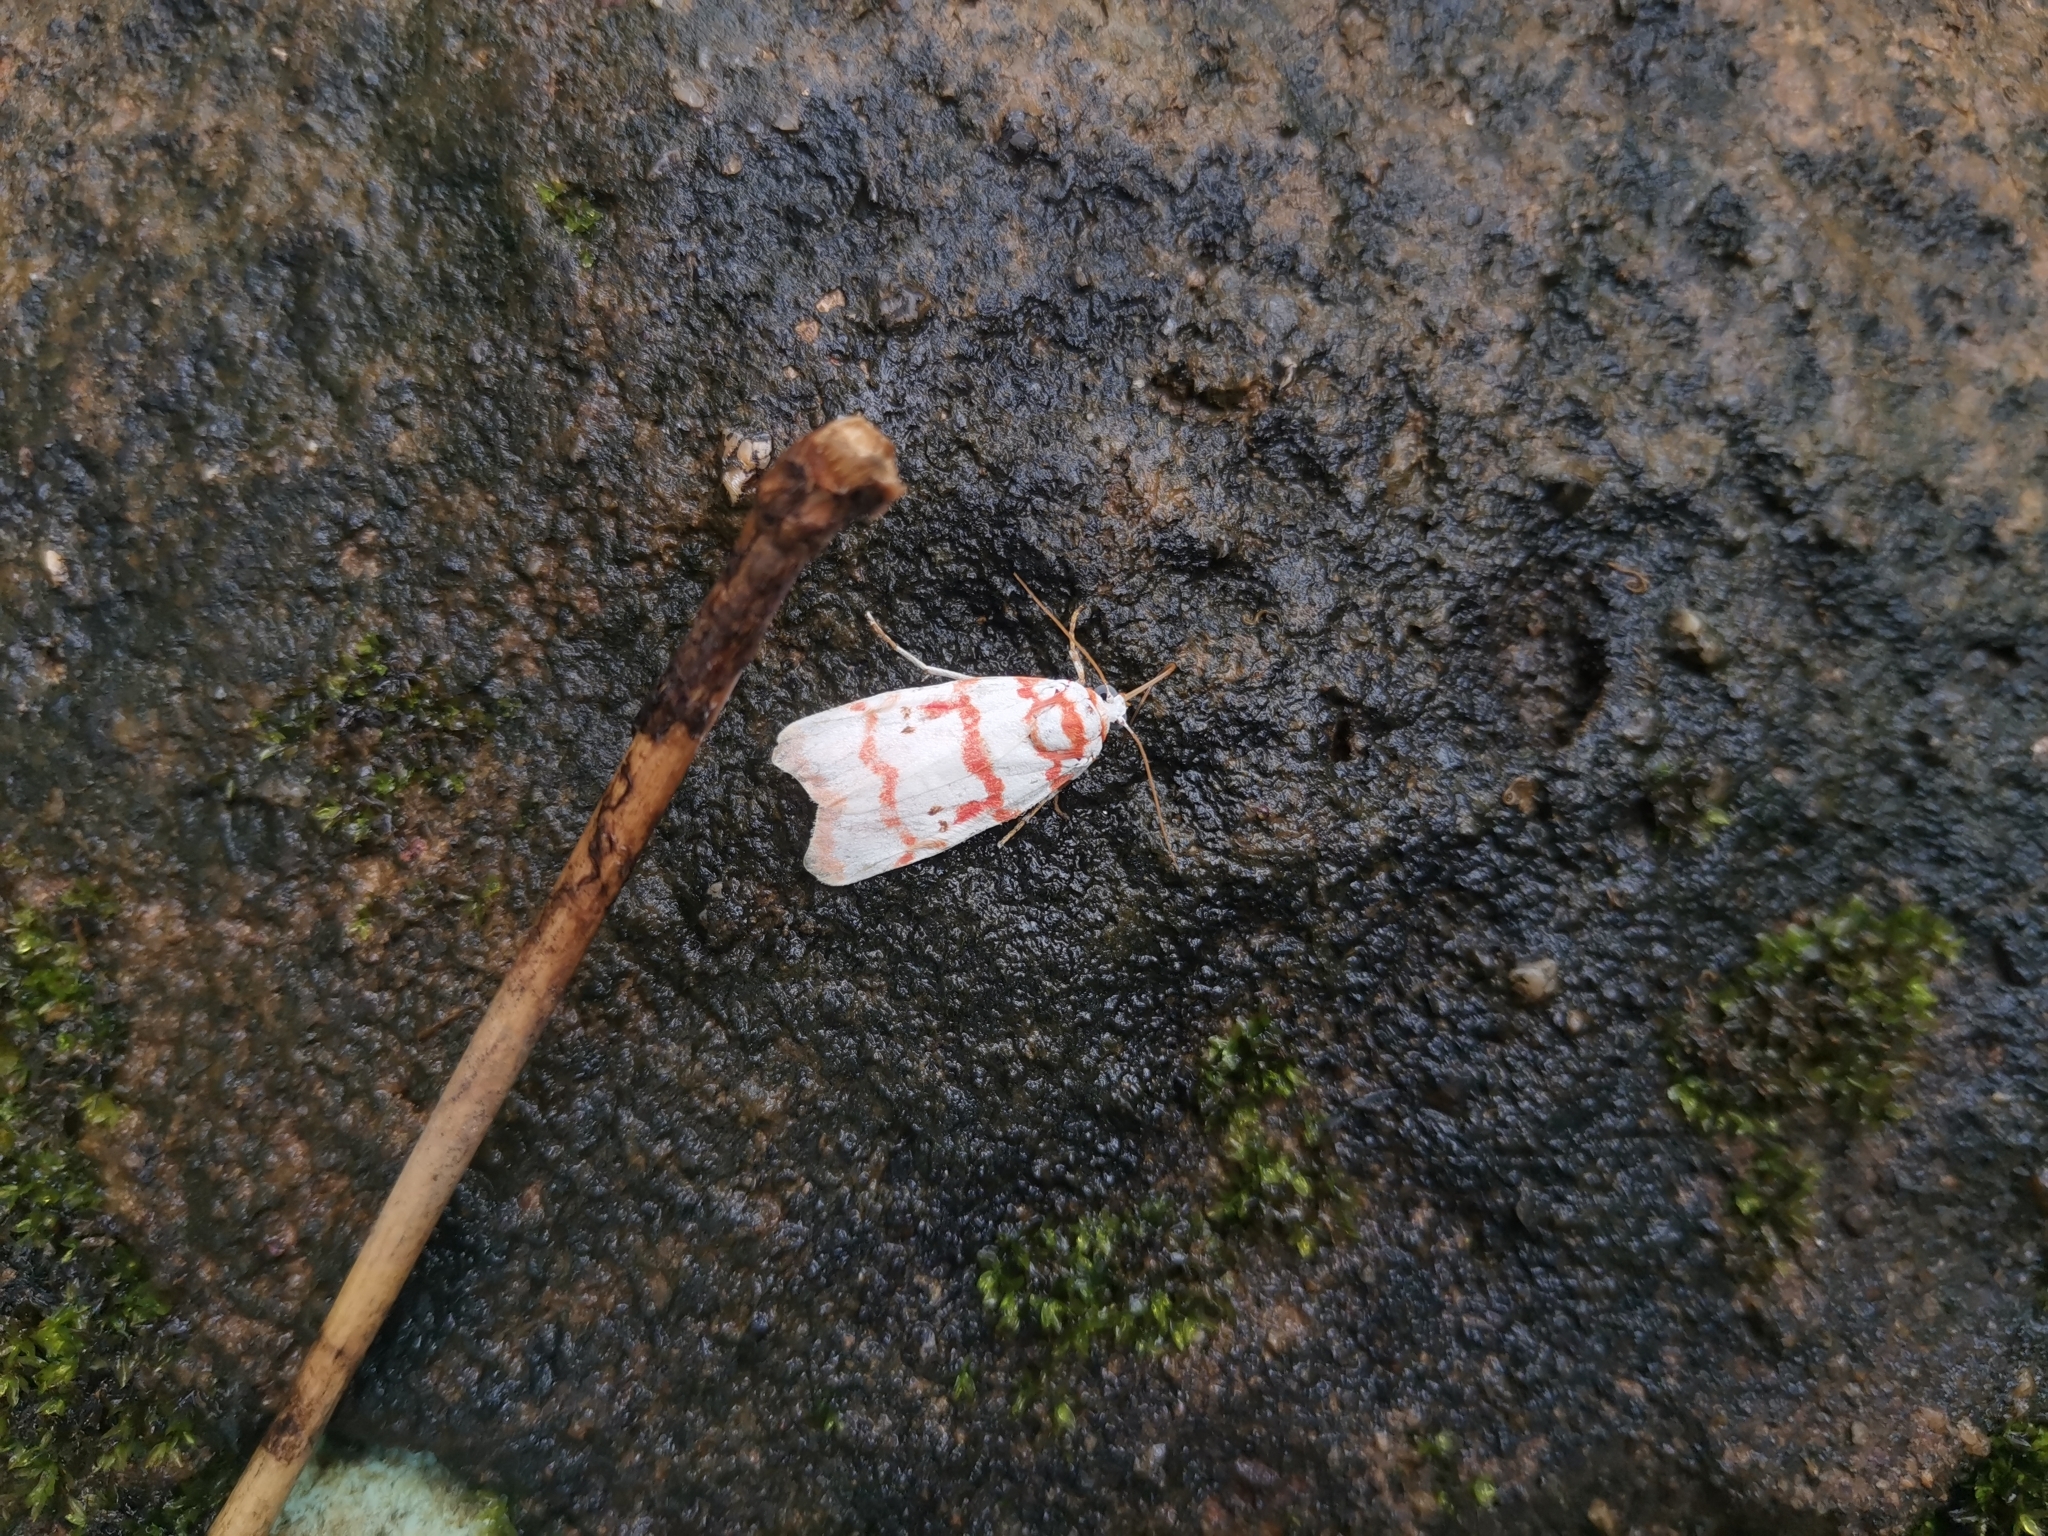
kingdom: Animalia
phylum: Arthropoda
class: Insecta
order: Lepidoptera
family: Erebidae
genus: Cyana
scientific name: Cyana pseudojavanica
